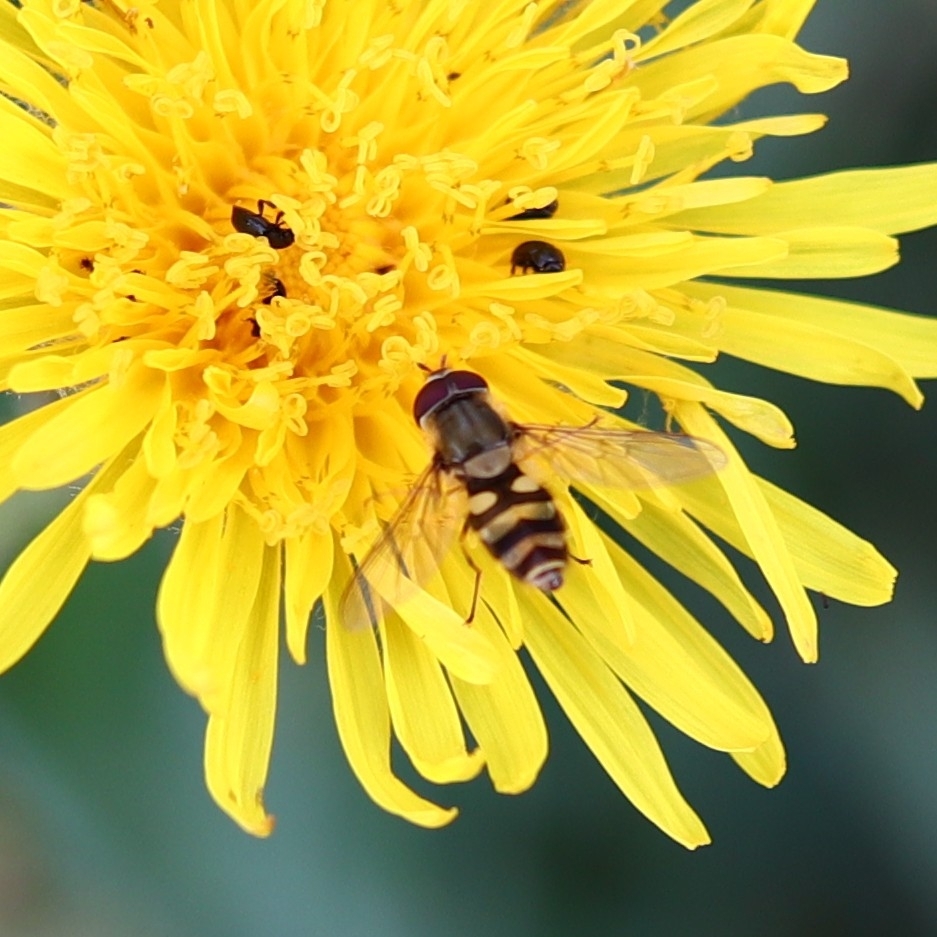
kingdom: Animalia
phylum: Arthropoda
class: Insecta
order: Diptera
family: Syrphidae
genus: Syrphus
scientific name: Syrphus
